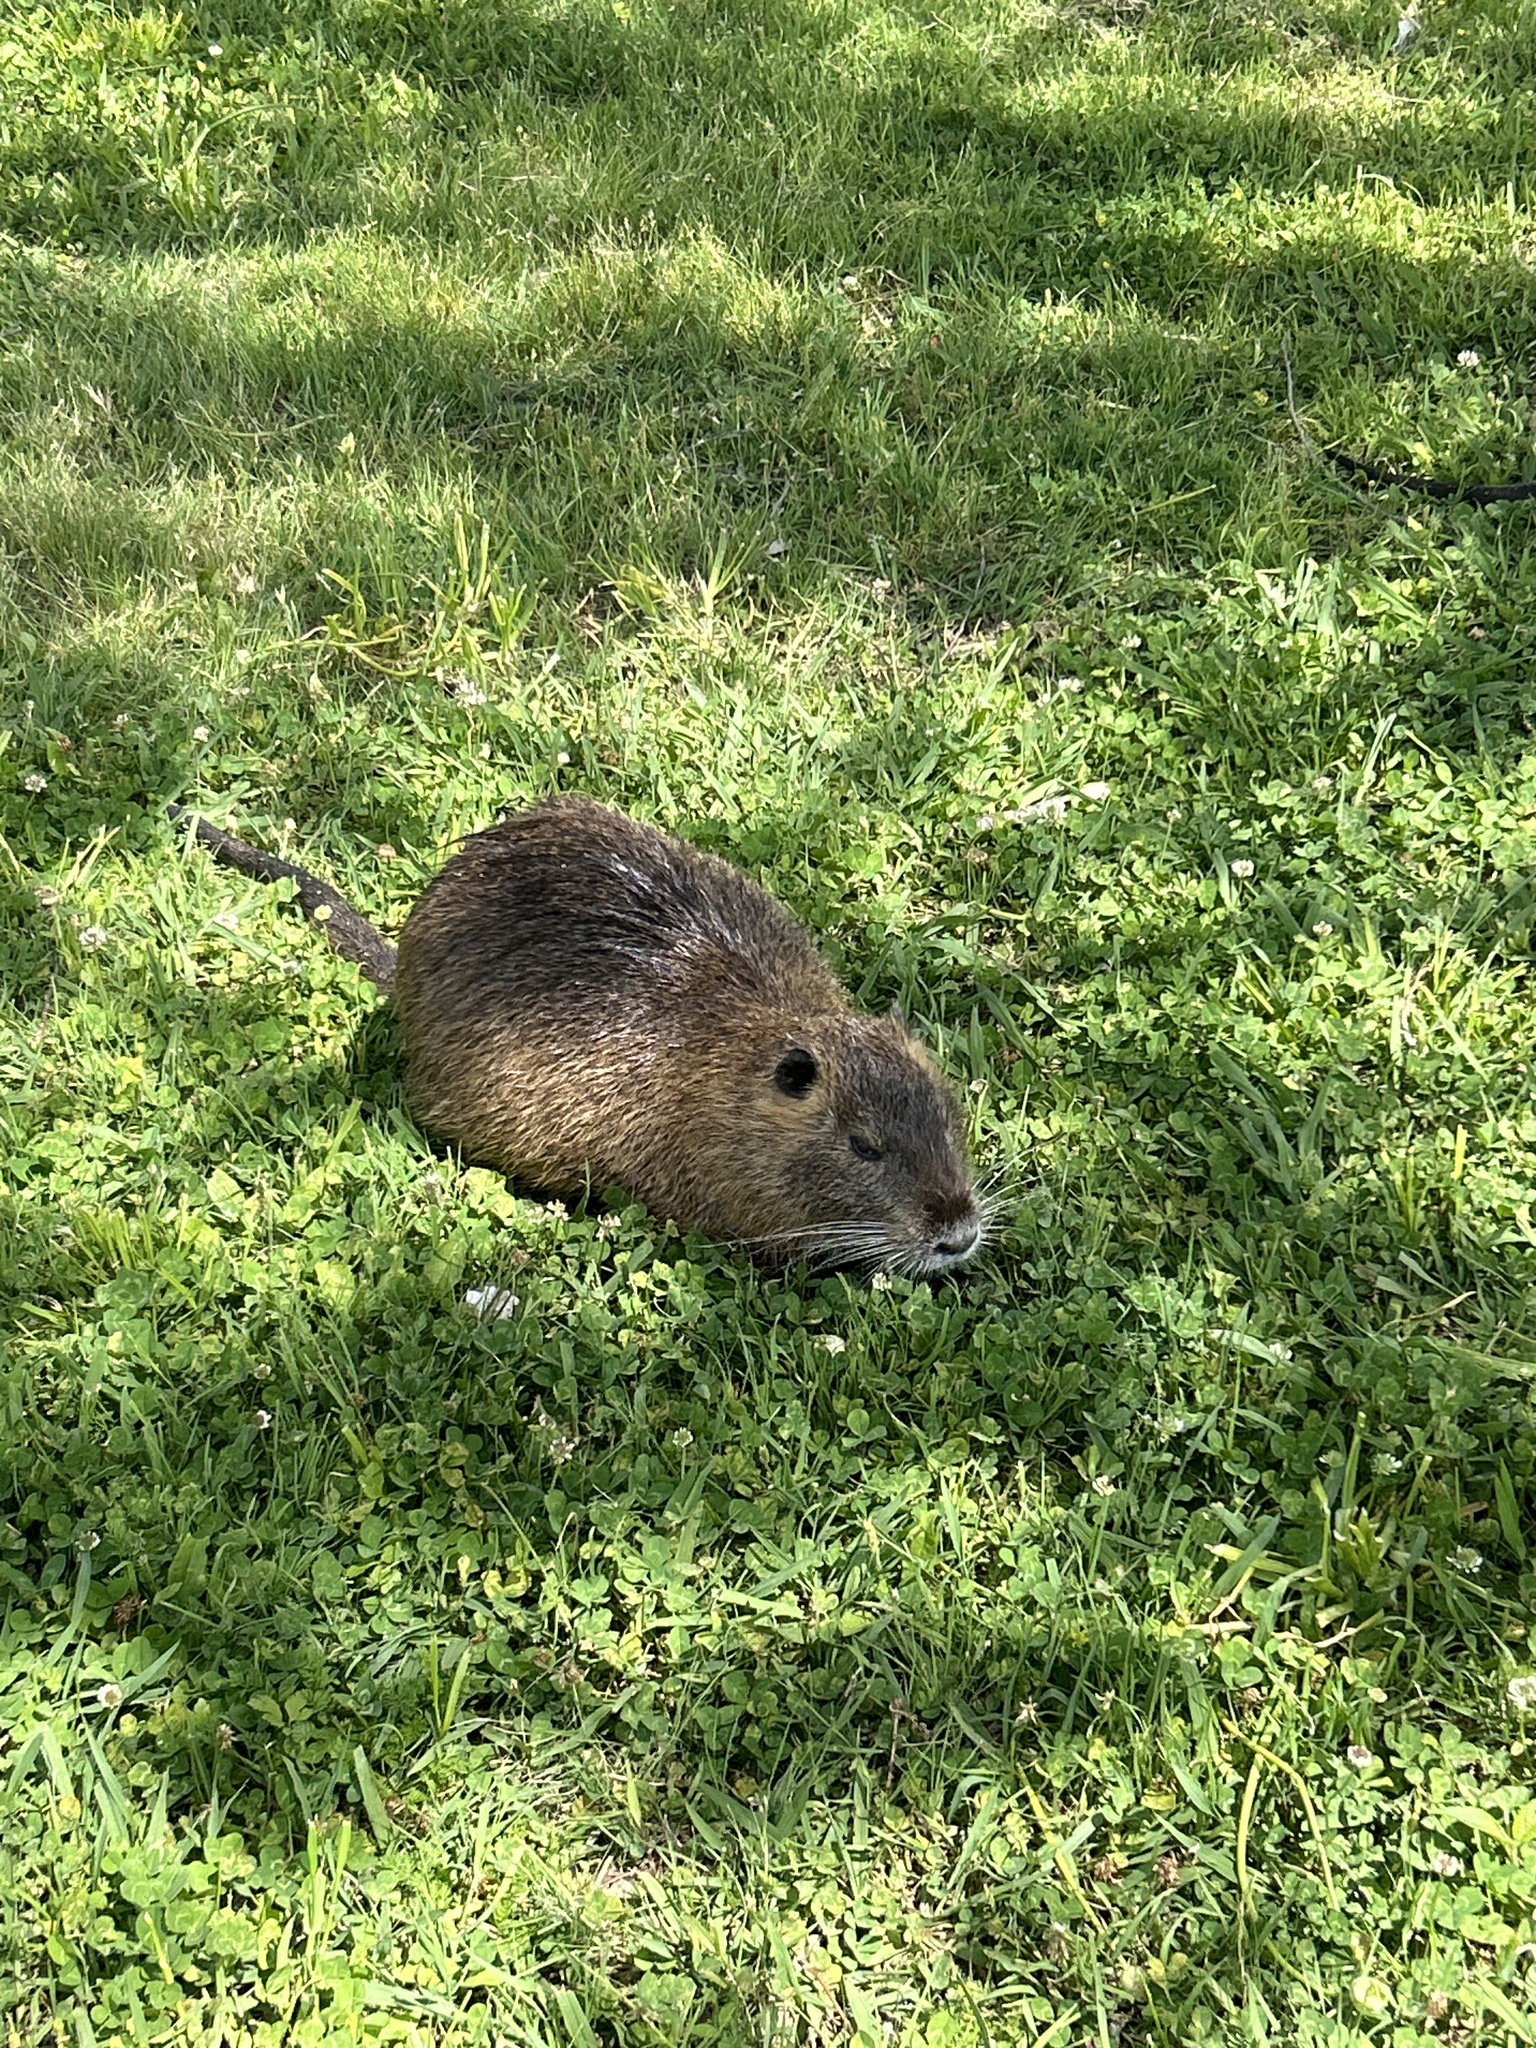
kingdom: Animalia
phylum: Chordata
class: Mammalia
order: Rodentia
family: Myocastoridae
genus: Myocastor
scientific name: Myocastor coypus
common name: Coypu
